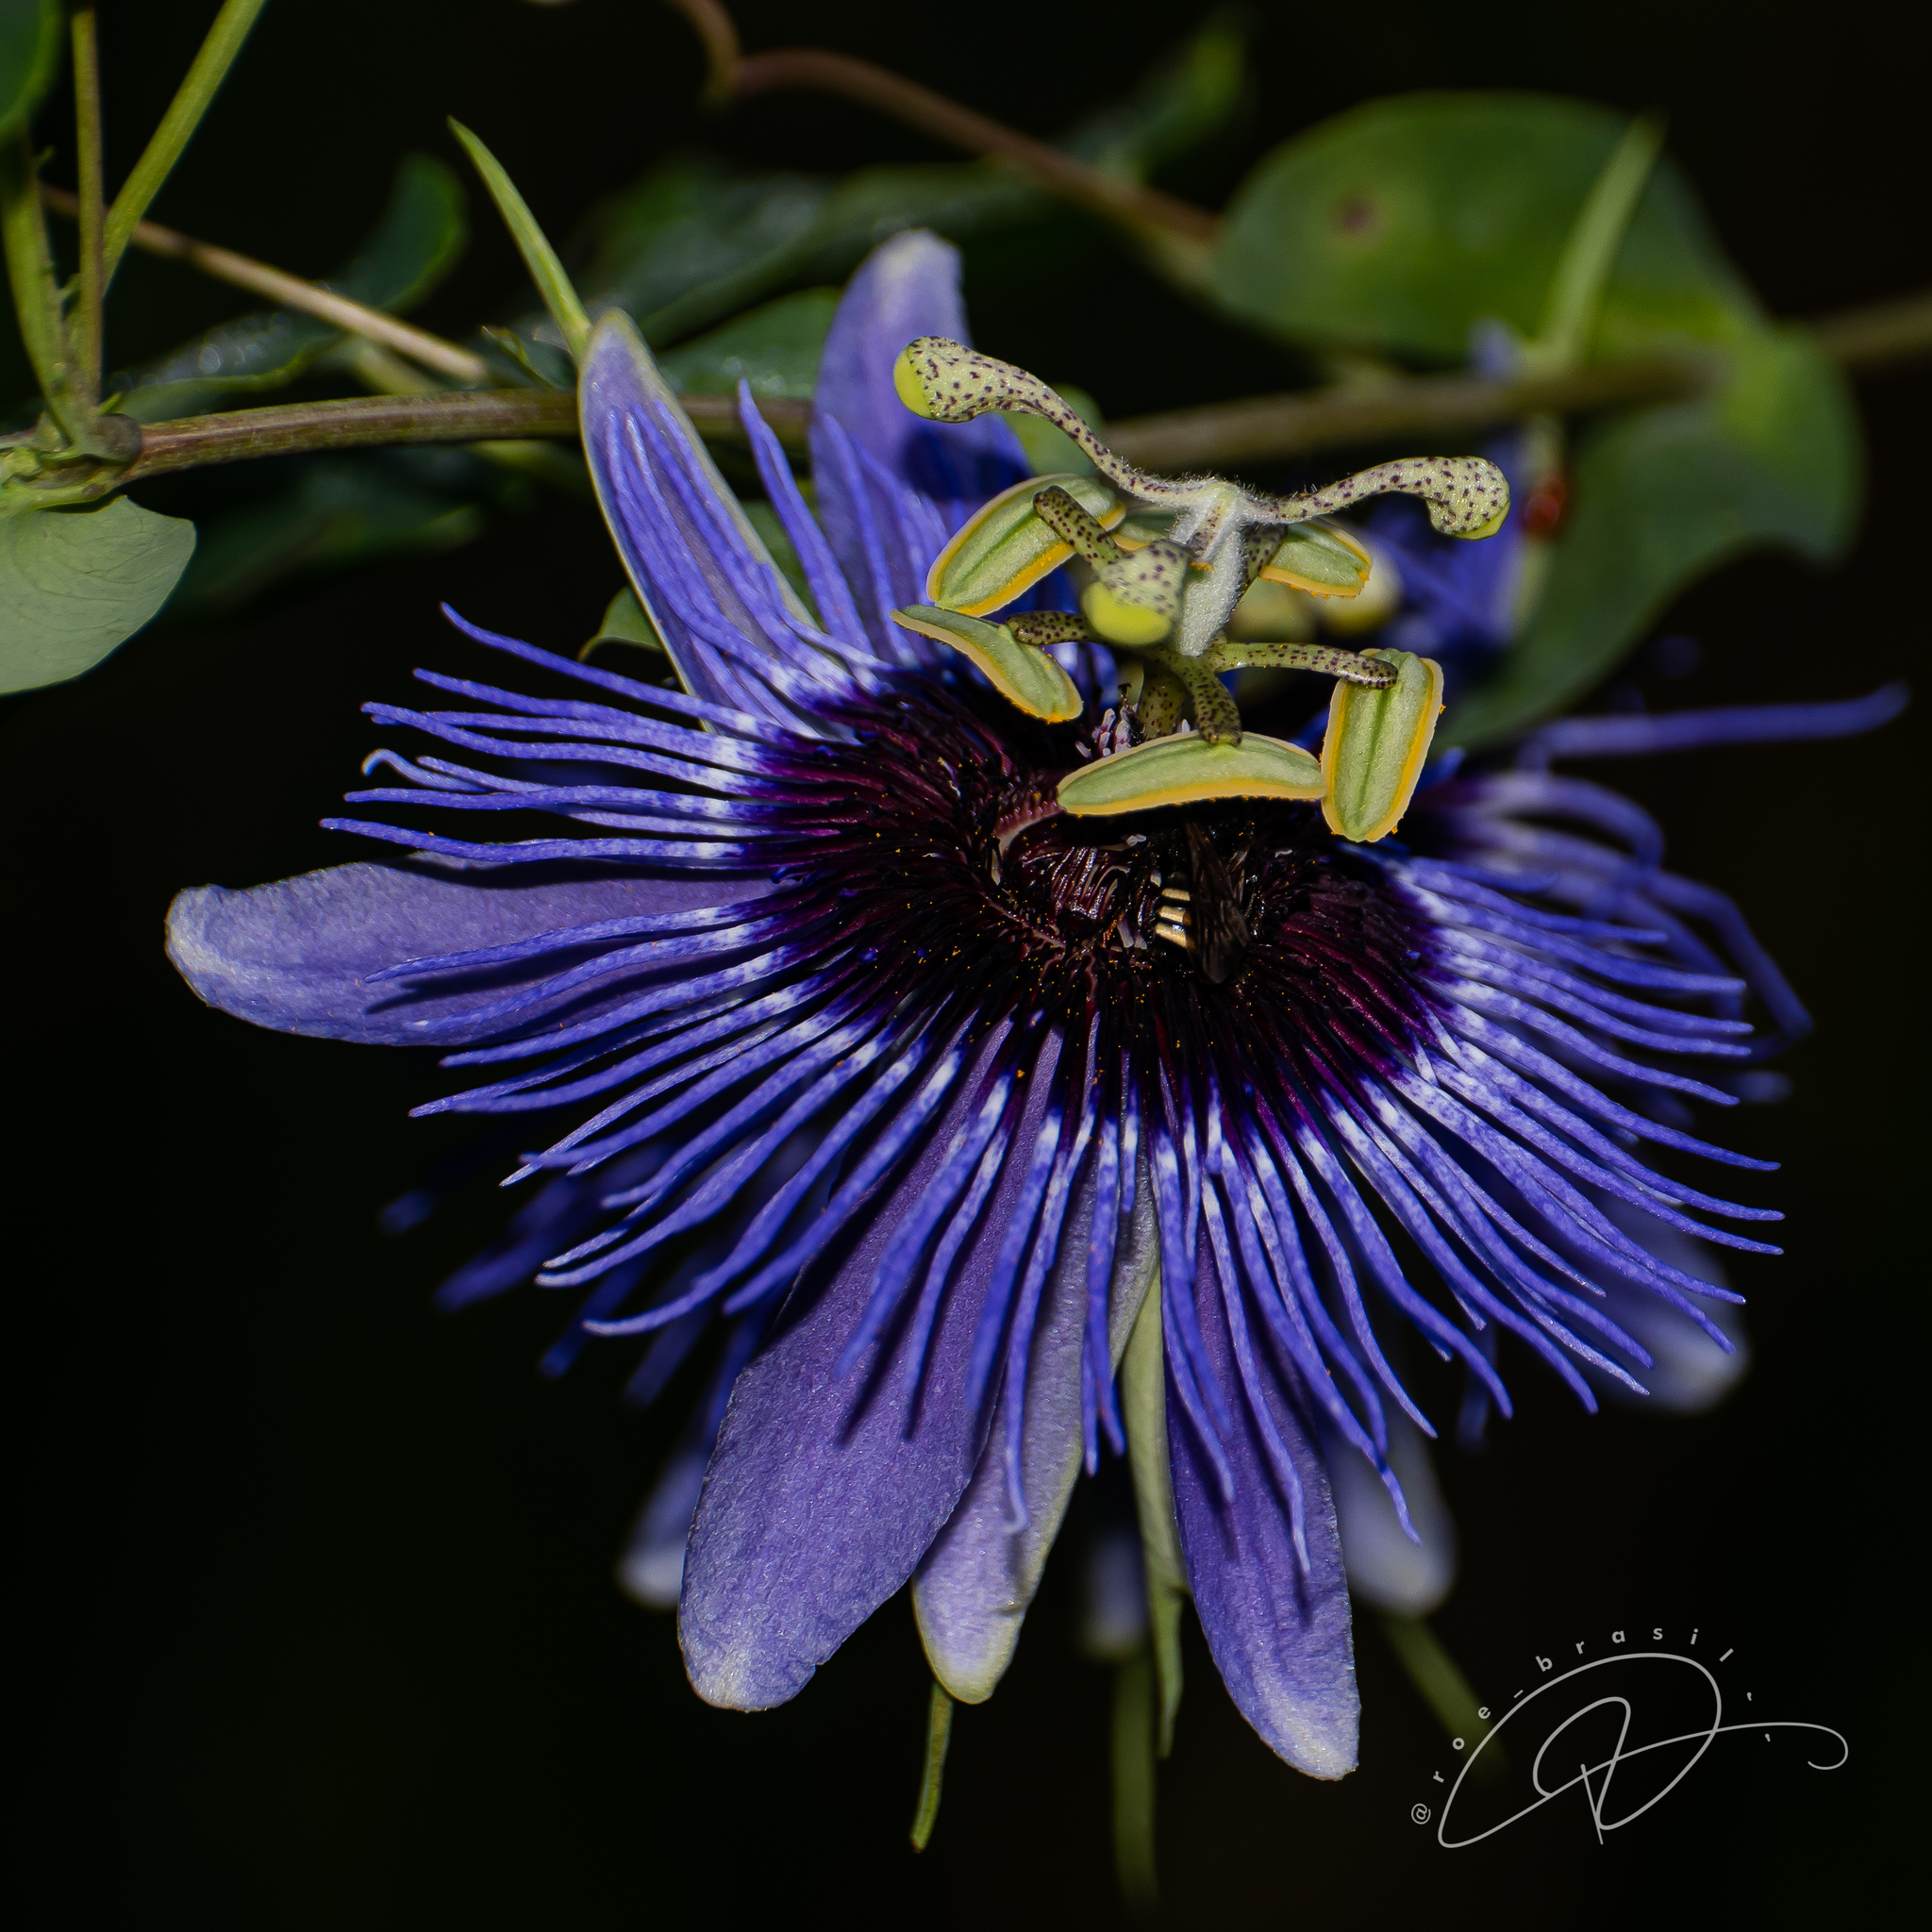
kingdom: Plantae
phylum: Tracheophyta
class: Magnoliopsida
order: Malpighiales
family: Passifloraceae
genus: Passiflora
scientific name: Passiflora amethystina
